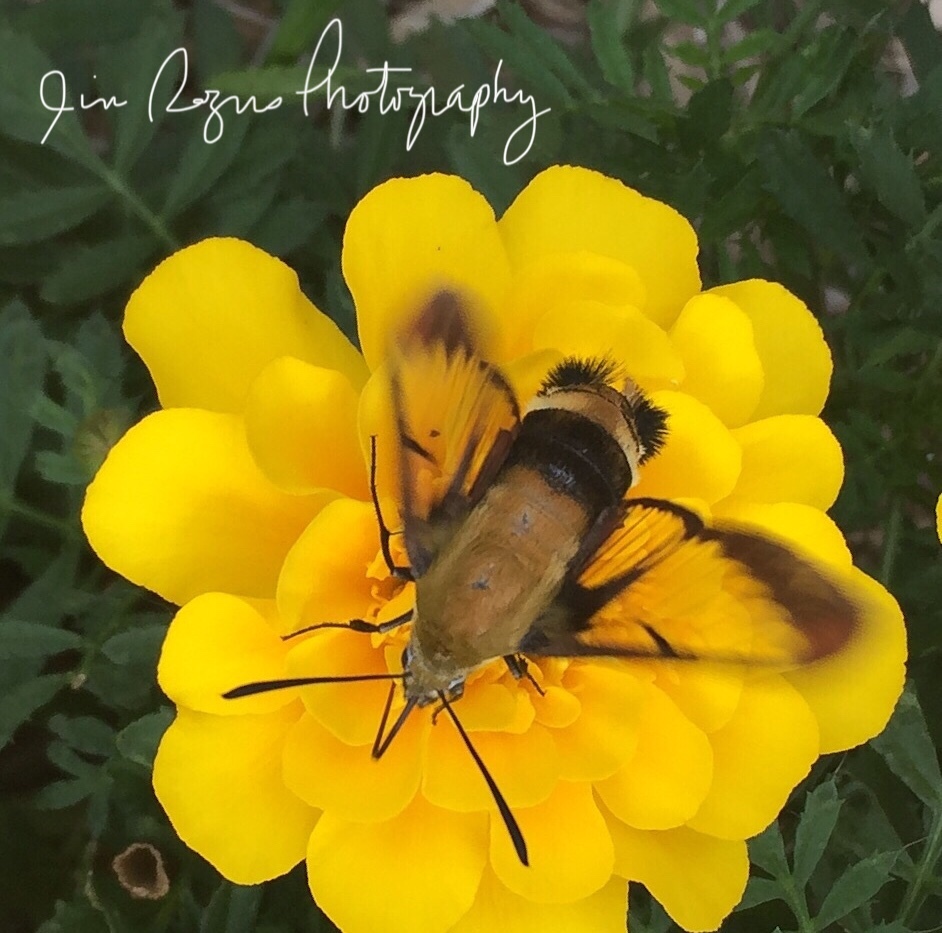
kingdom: Animalia
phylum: Arthropoda
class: Insecta
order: Lepidoptera
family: Sphingidae
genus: Hemaris
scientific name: Hemaris diffinis
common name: Bumblebee moth
